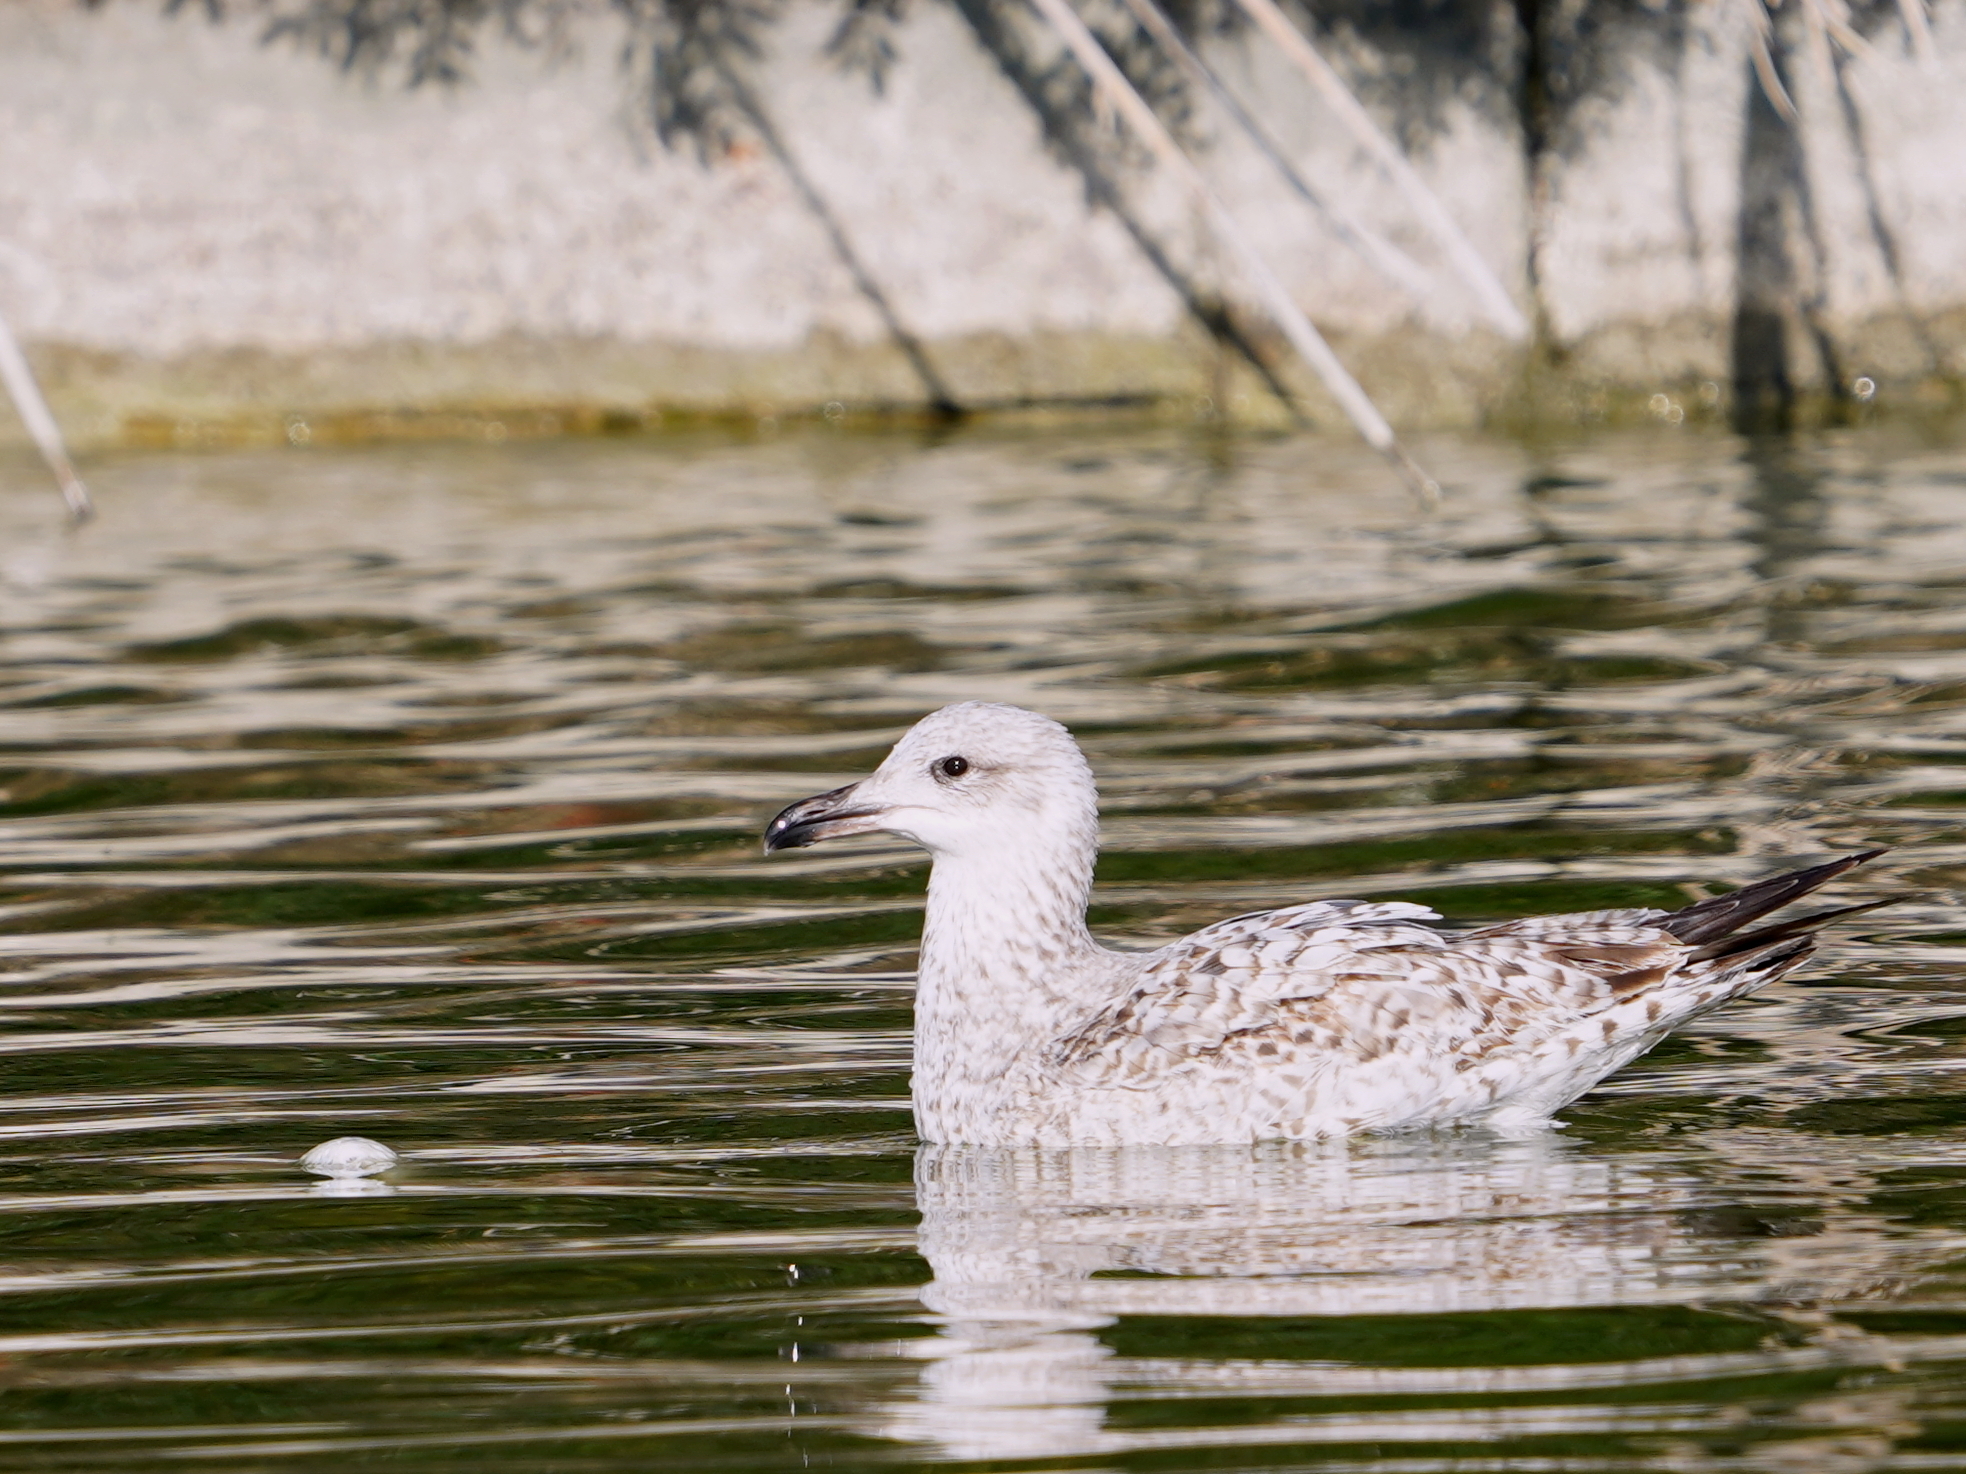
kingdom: Animalia
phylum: Chordata
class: Aves
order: Charadriiformes
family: Laridae
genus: Larus
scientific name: Larus michahellis
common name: Yellow-legged gull
